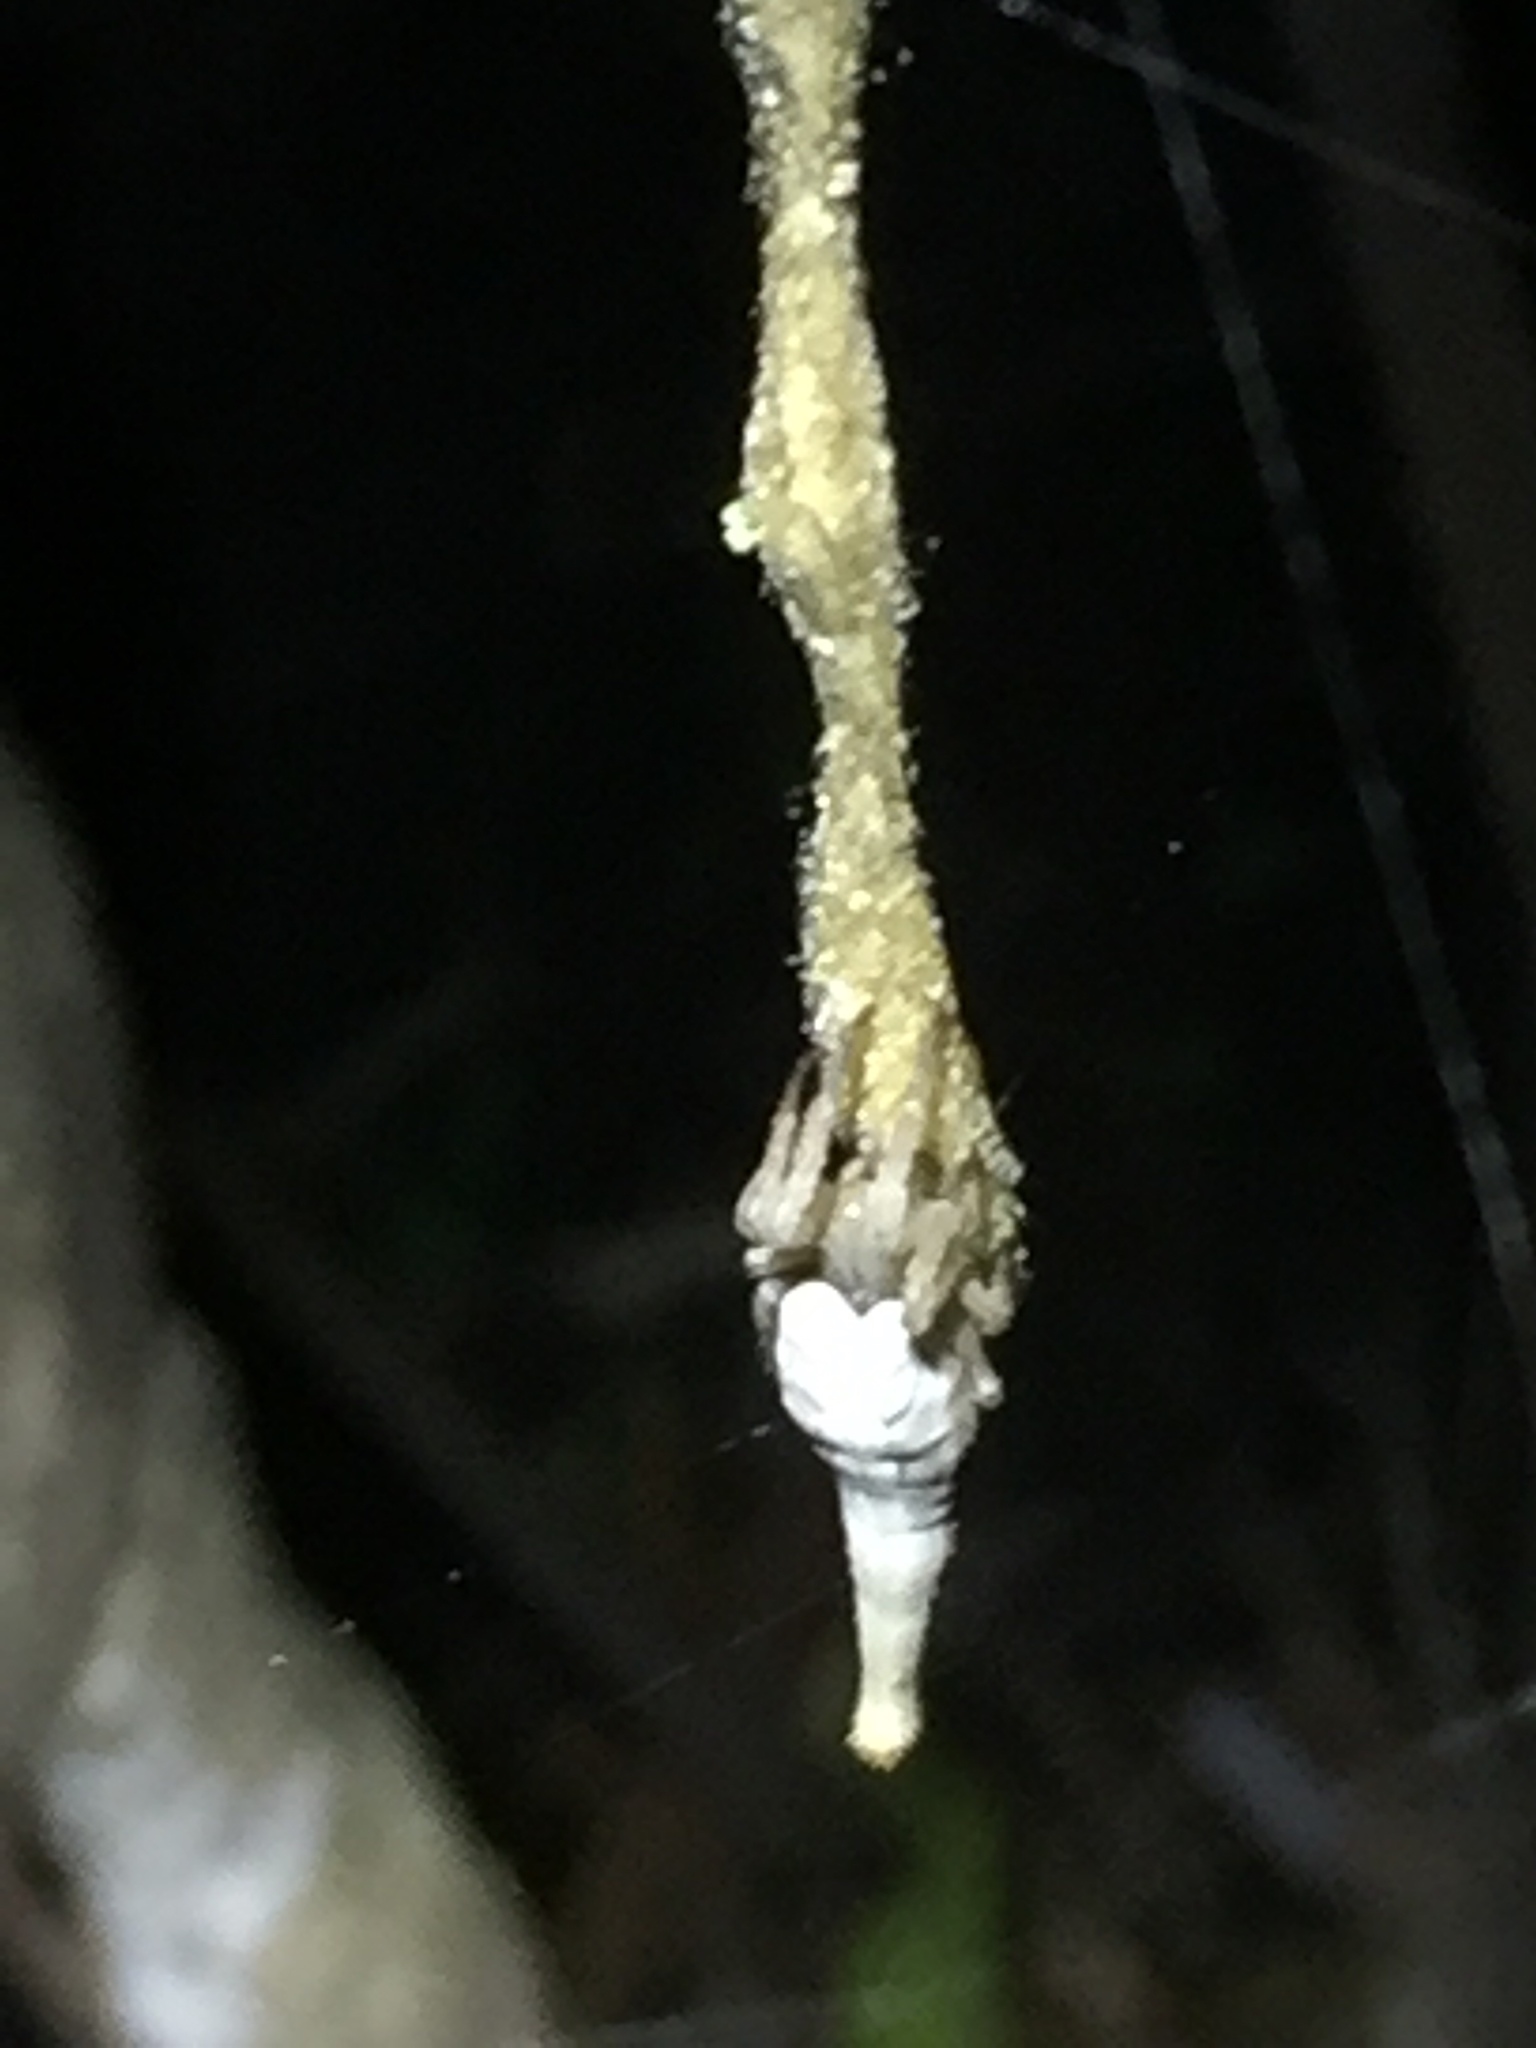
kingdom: Animalia
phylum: Arthropoda
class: Arachnida
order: Araneae
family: Araneidae
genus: Arachnura
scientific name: Arachnura feredayi
